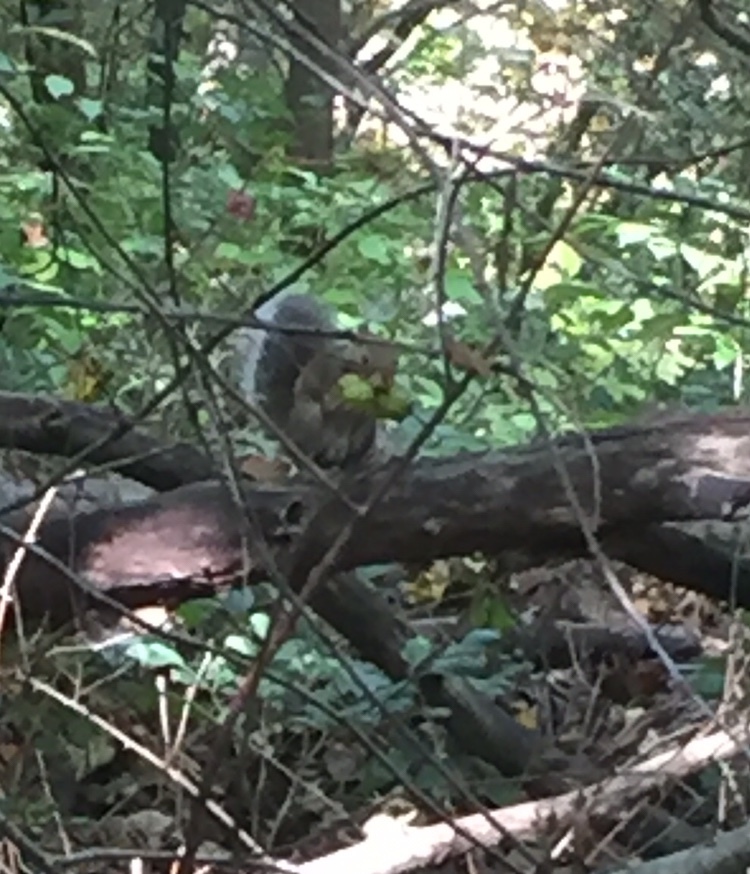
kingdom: Animalia
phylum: Chordata
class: Mammalia
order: Rodentia
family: Sciuridae
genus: Sciurus
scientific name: Sciurus carolinensis
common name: Eastern gray squirrel
